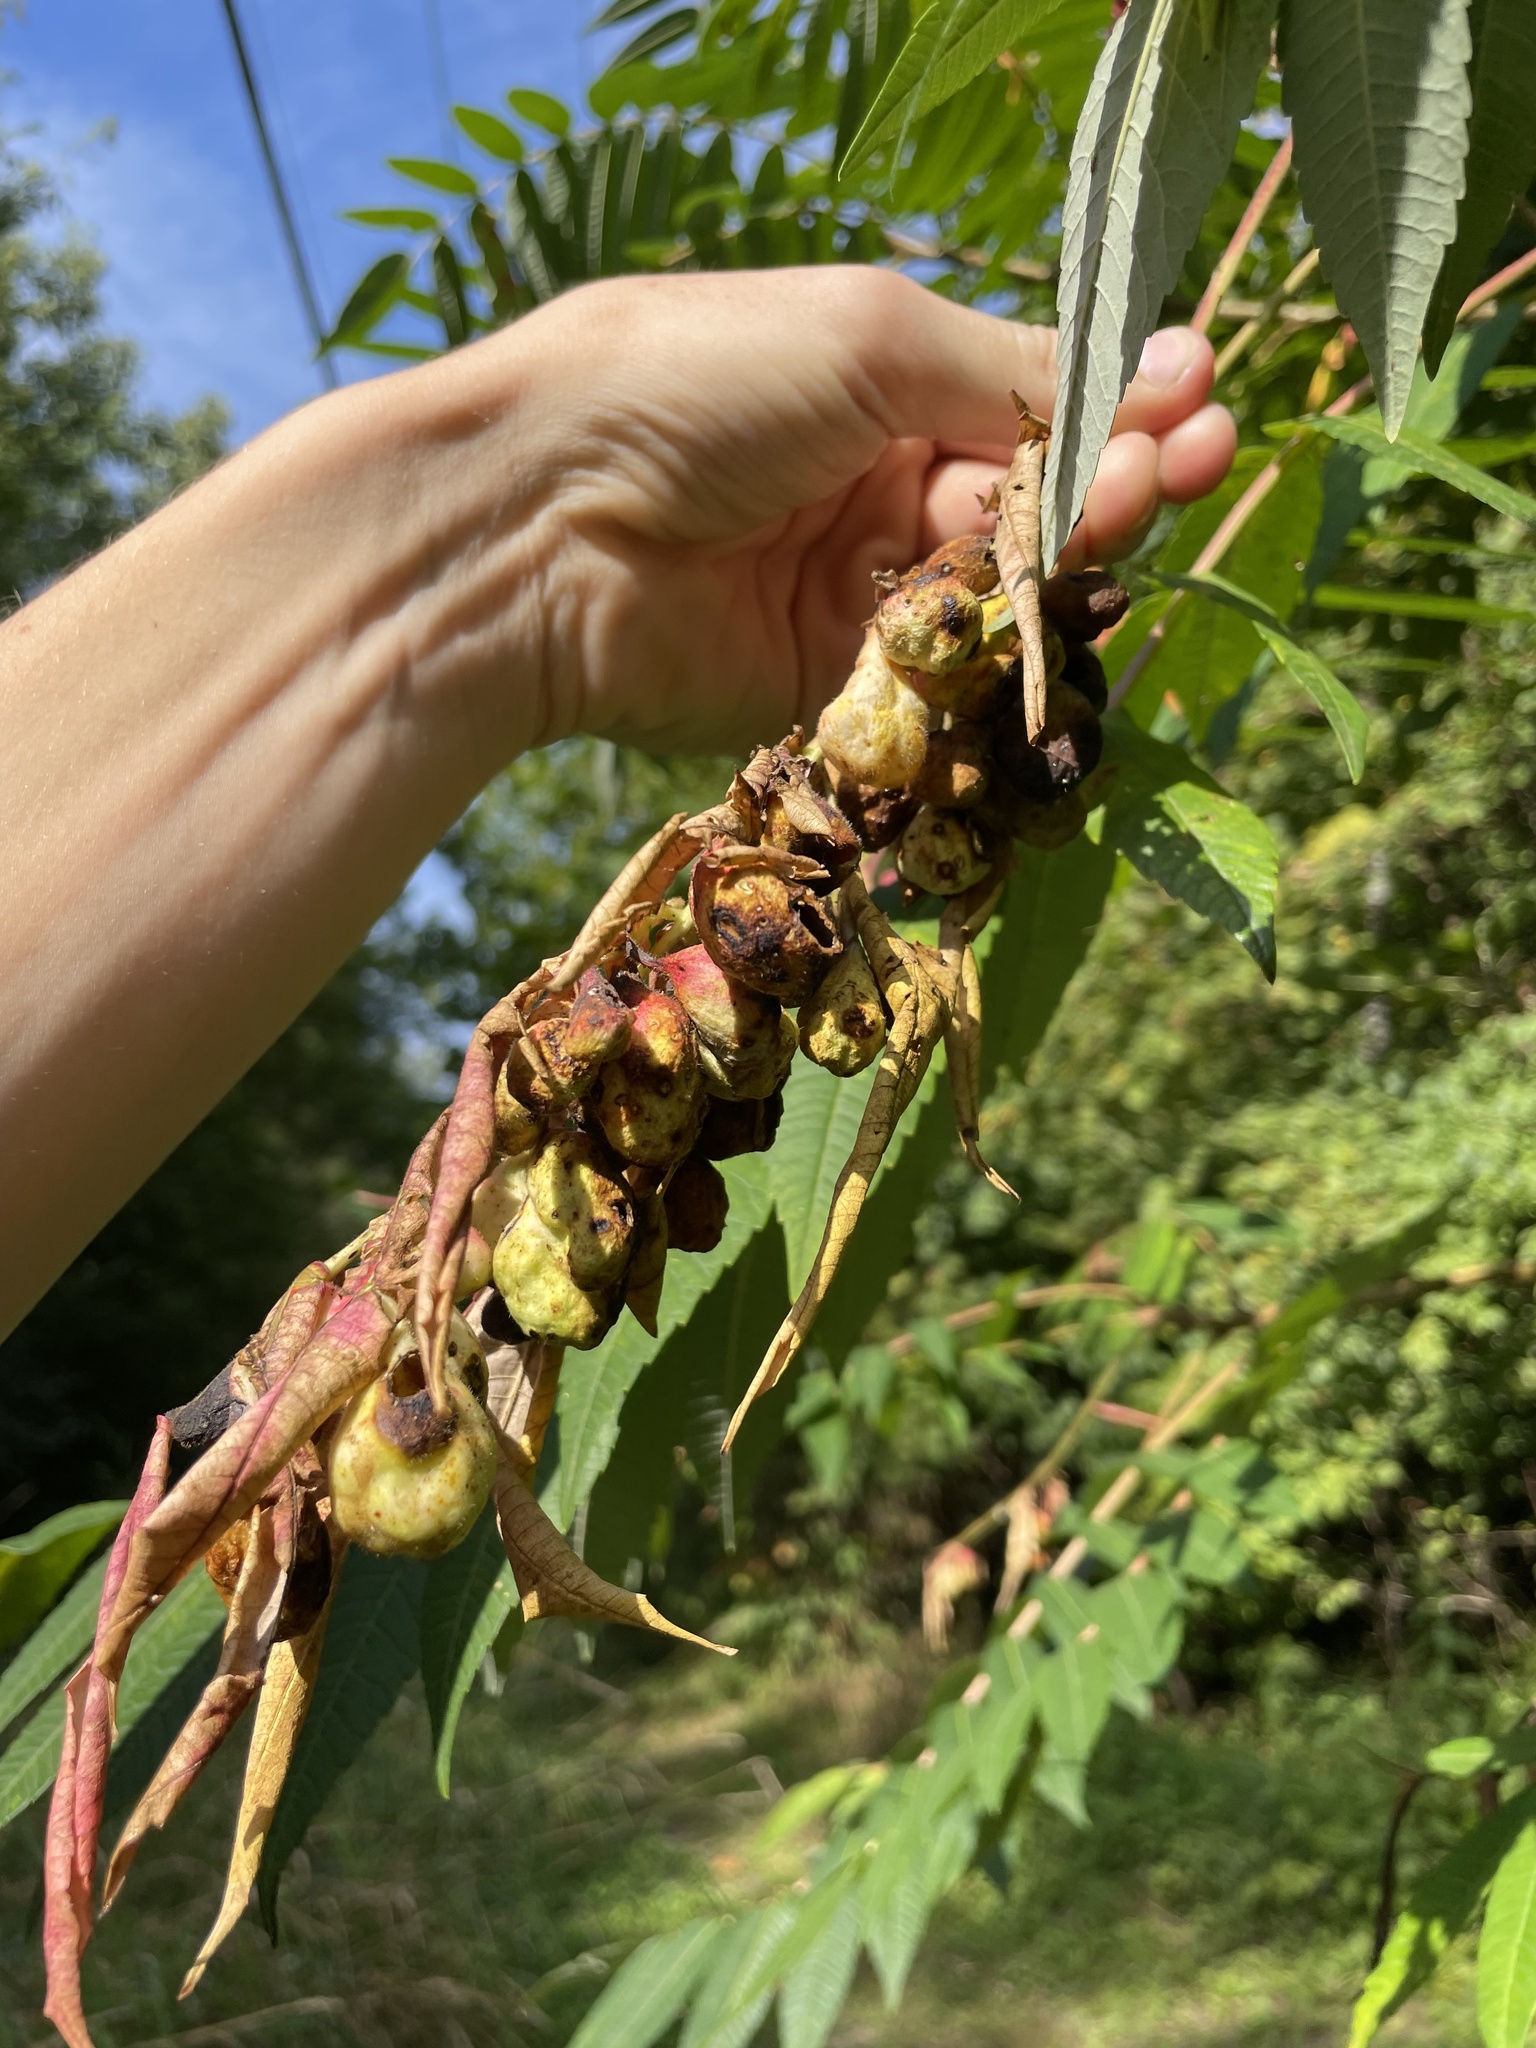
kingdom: Animalia
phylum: Arthropoda
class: Insecta
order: Hemiptera
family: Aphididae
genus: Melaphis
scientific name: Melaphis rhois
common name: Sumac gall aphid
